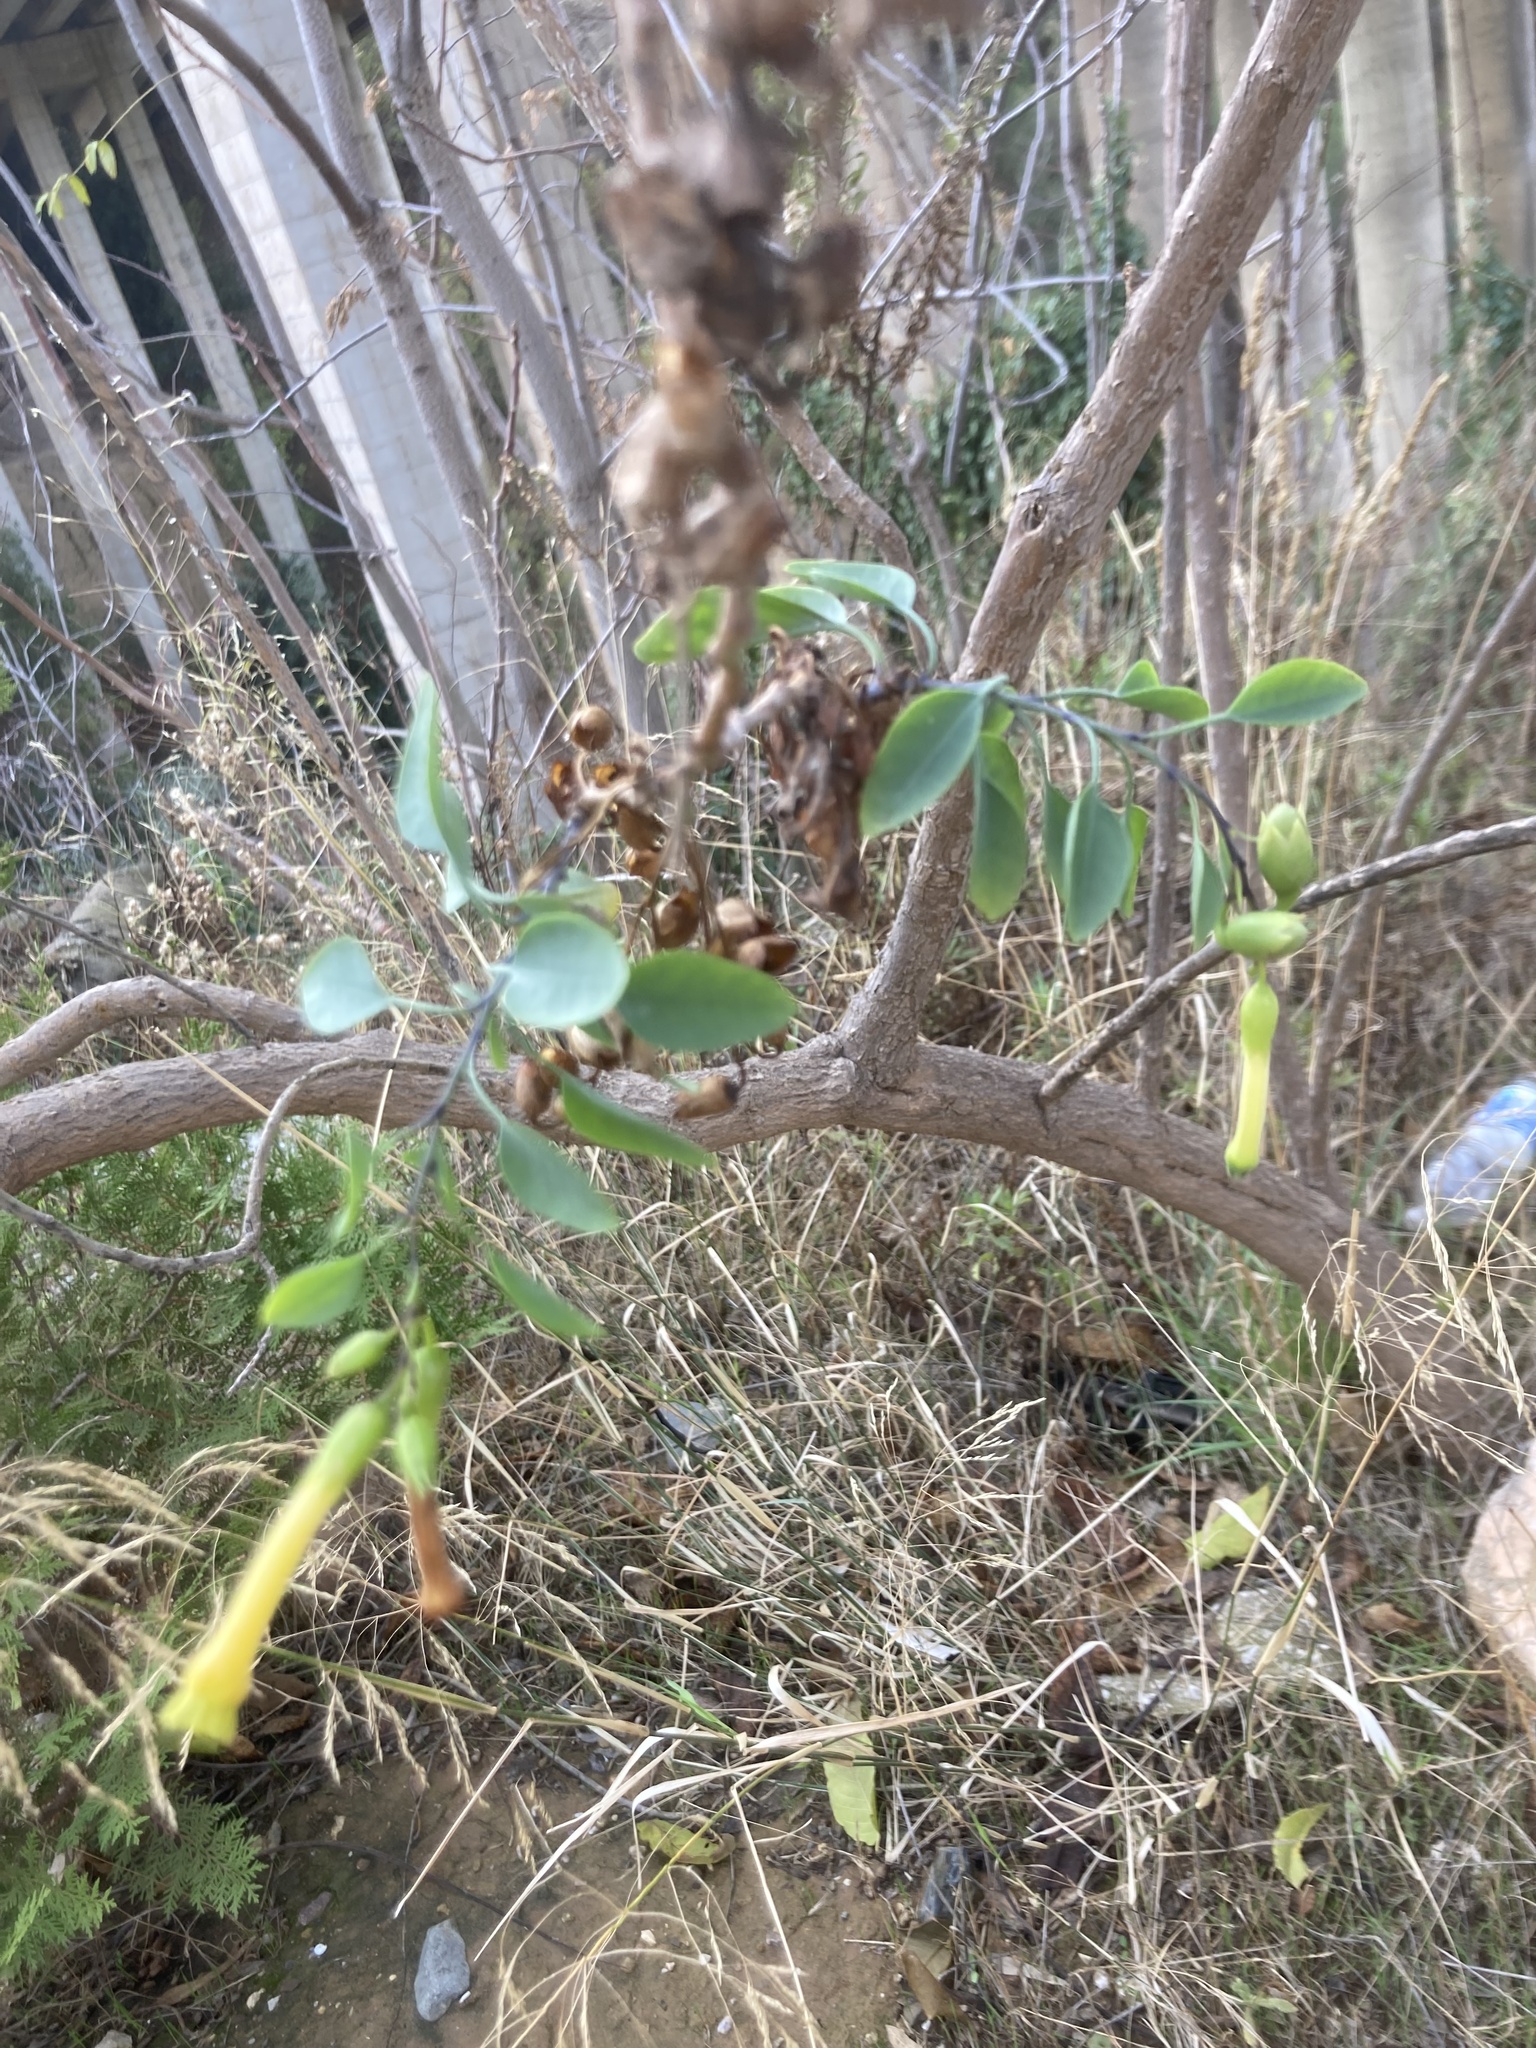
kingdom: Plantae
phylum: Tracheophyta
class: Magnoliopsida
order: Solanales
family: Solanaceae
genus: Nicotiana
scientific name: Nicotiana glauca
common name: Tree tobacco
